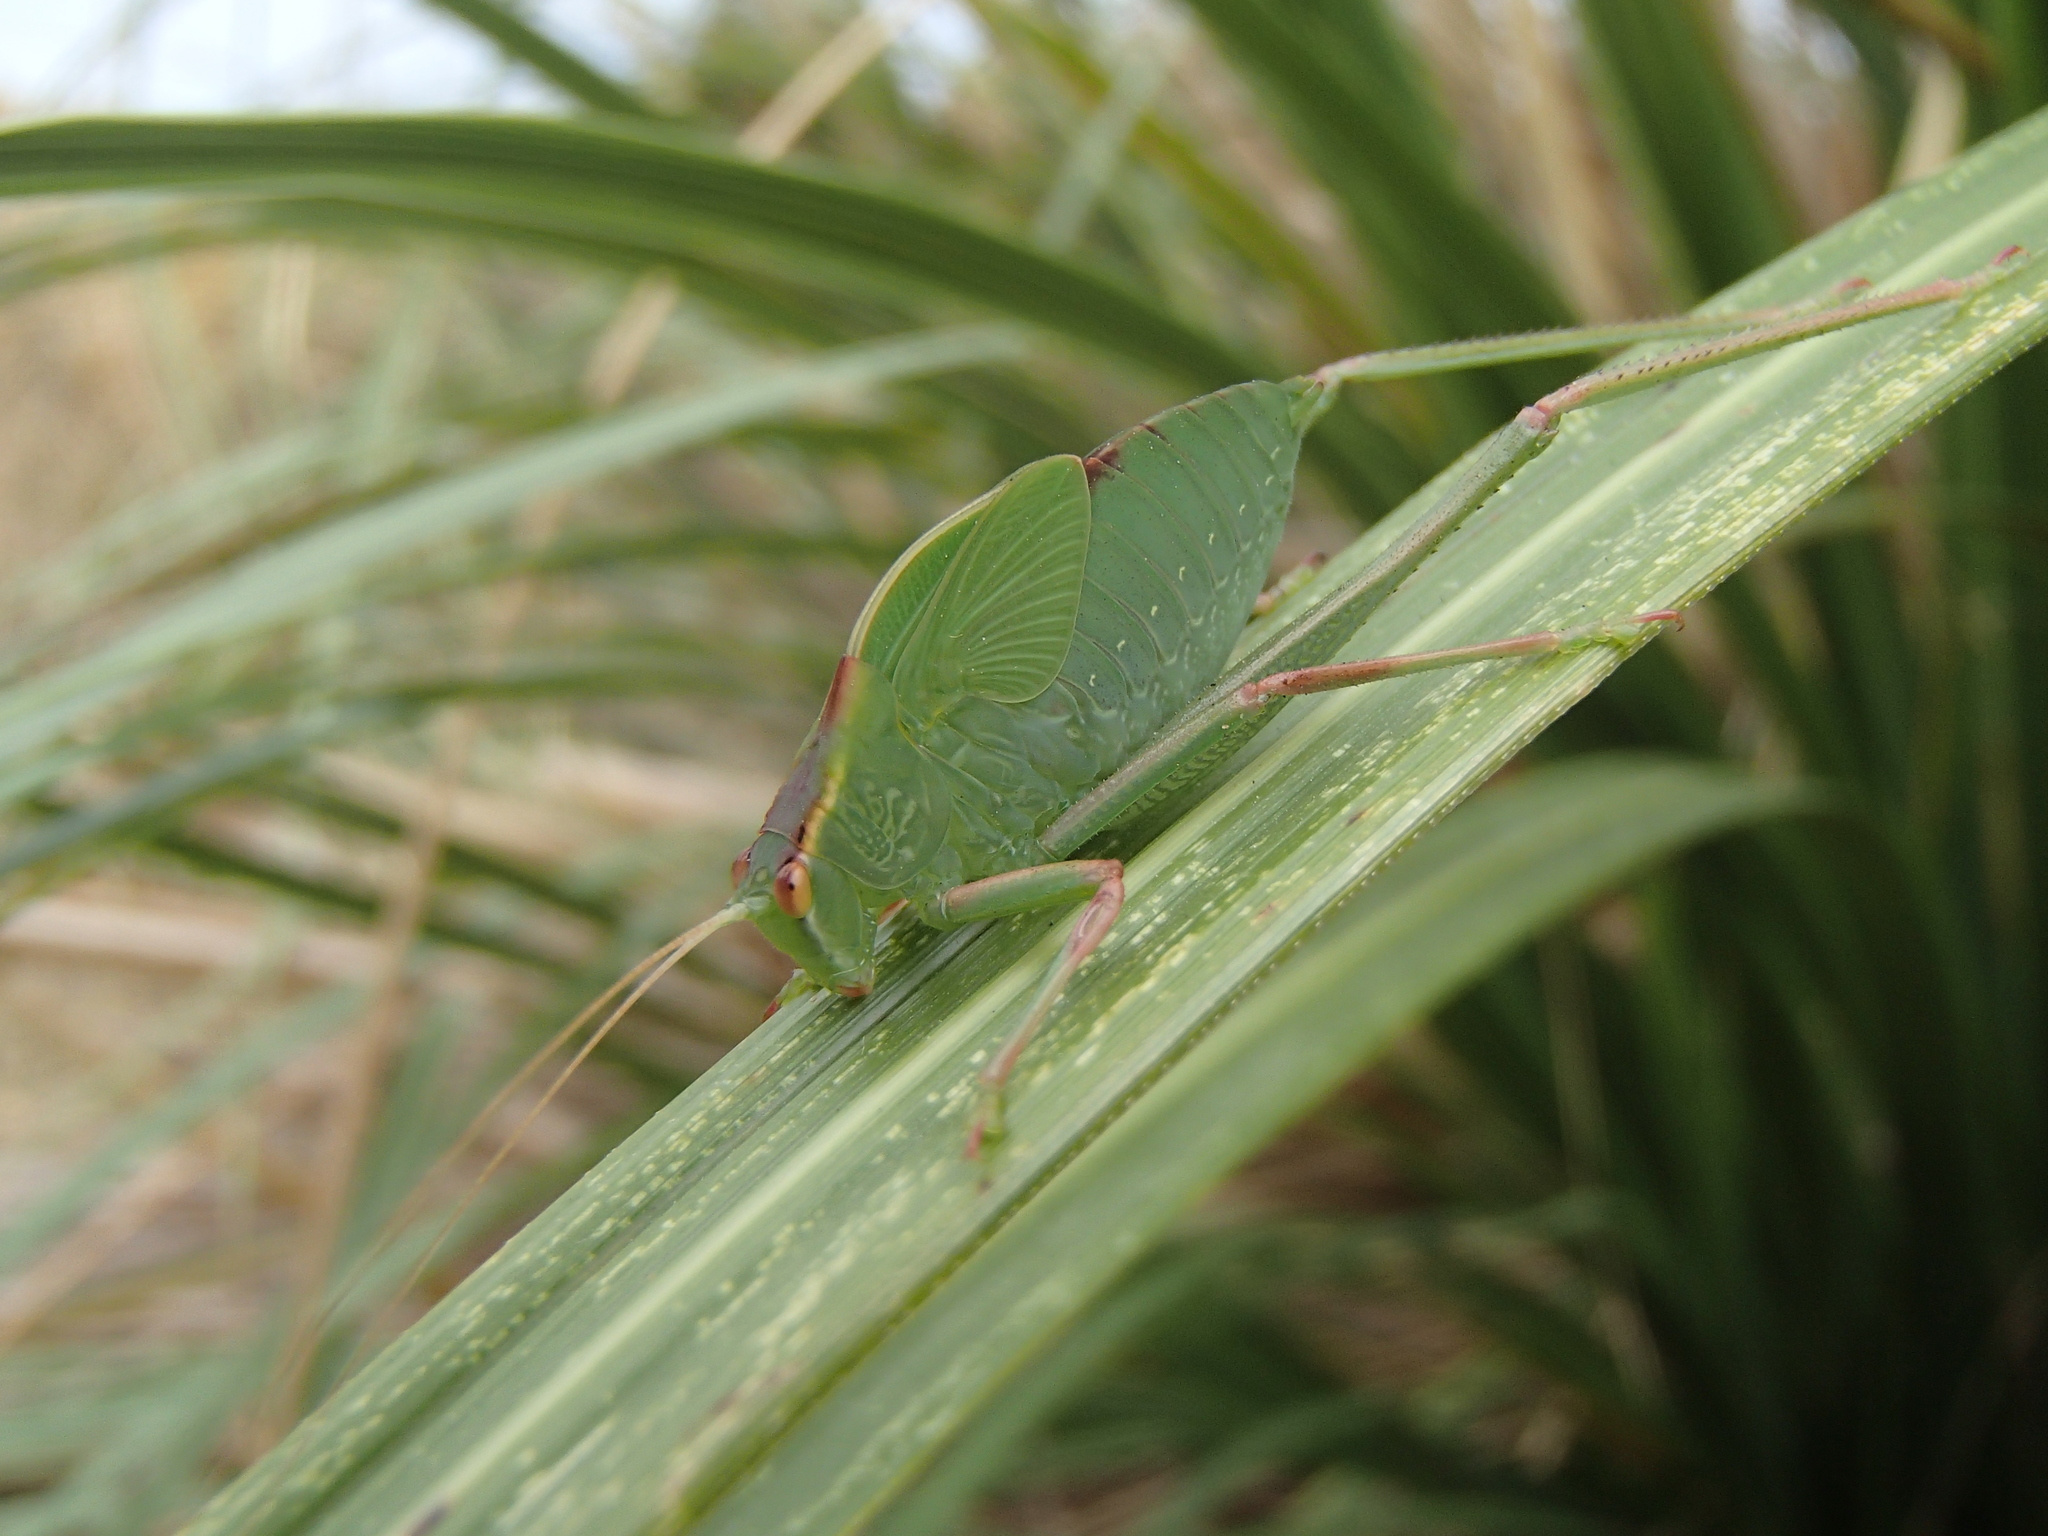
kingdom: Animalia
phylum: Arthropoda
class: Insecta
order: Orthoptera
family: Tettigoniidae
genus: Caedicia
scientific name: Caedicia simplex
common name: Common garden katydid
